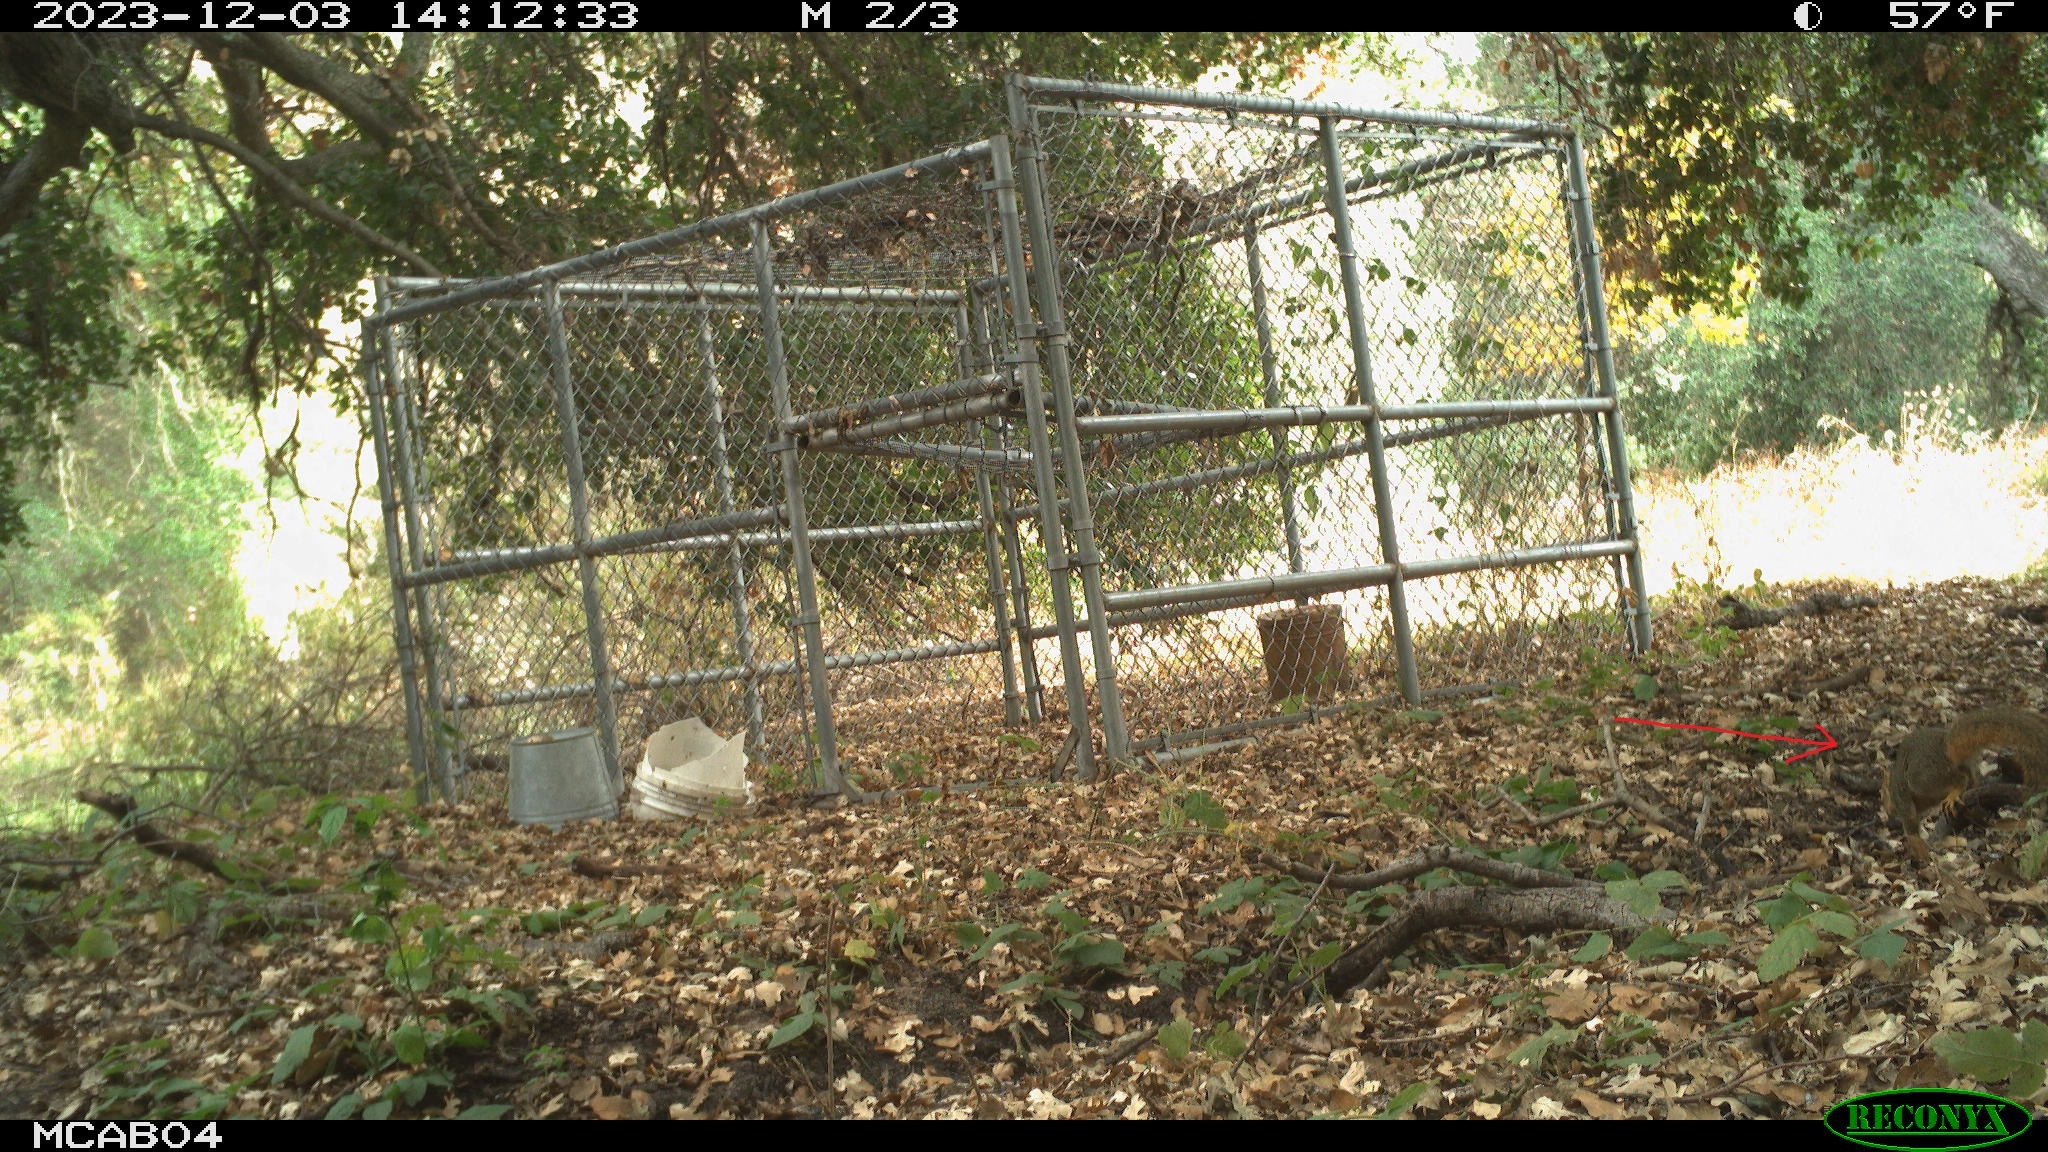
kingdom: Animalia
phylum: Chordata
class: Mammalia
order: Rodentia
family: Sciuridae
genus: Sciurus
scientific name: Sciurus niger
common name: Fox squirrel
